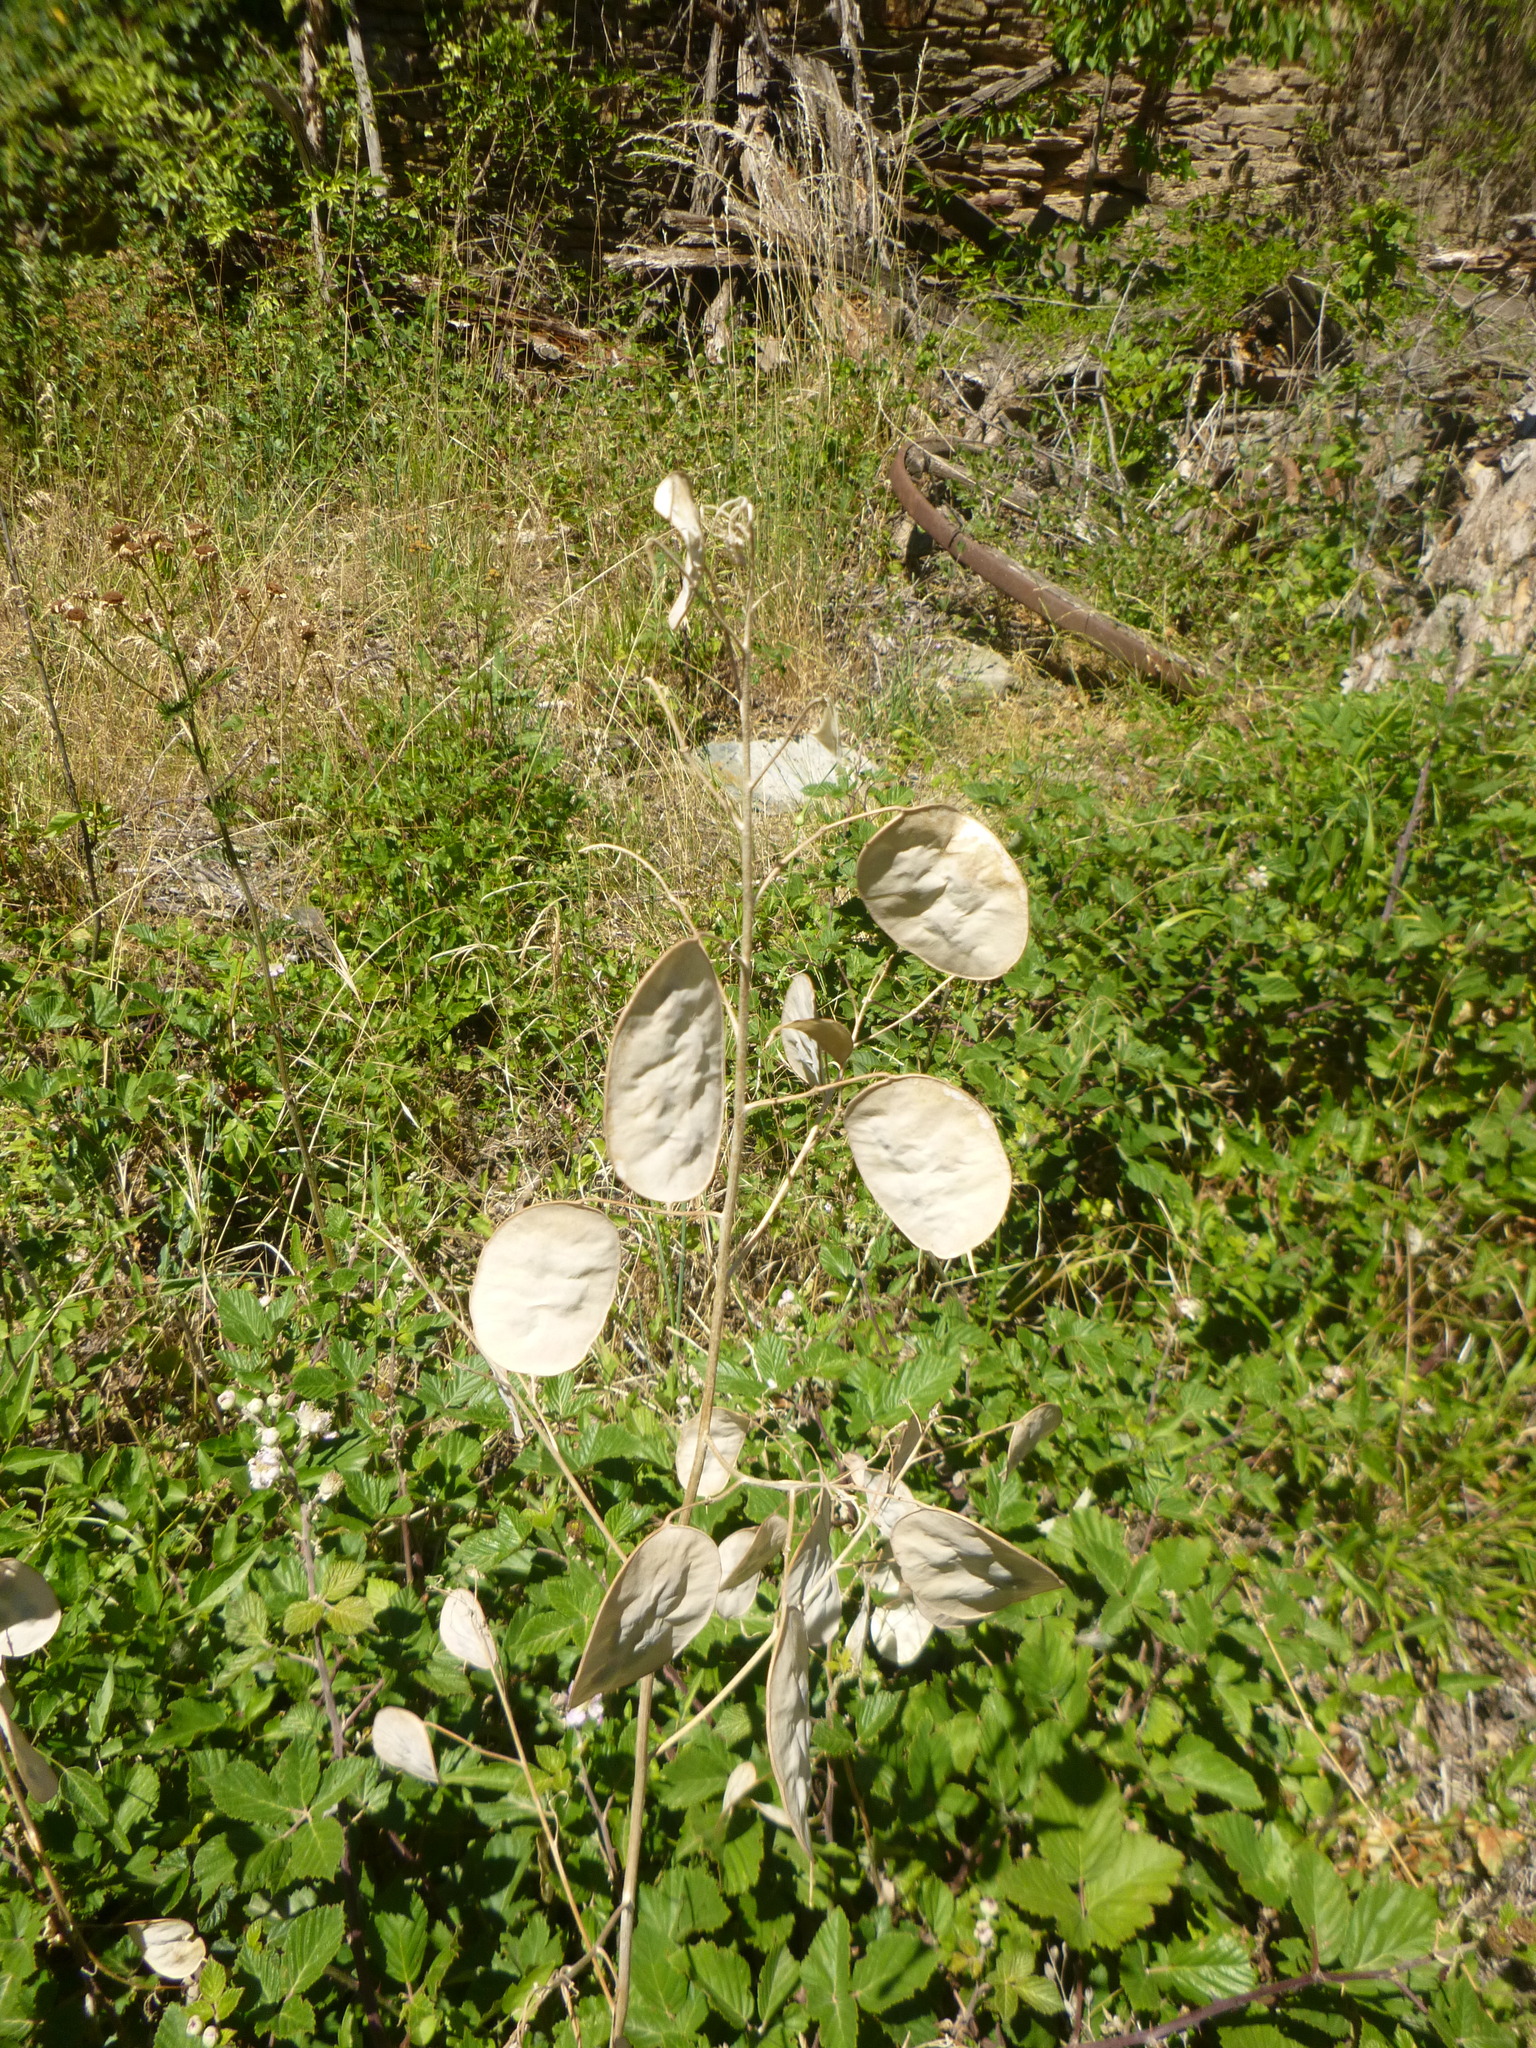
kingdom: Plantae
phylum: Tracheophyta
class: Magnoliopsida
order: Brassicales
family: Brassicaceae
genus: Lunaria
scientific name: Lunaria annua
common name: Honesty
